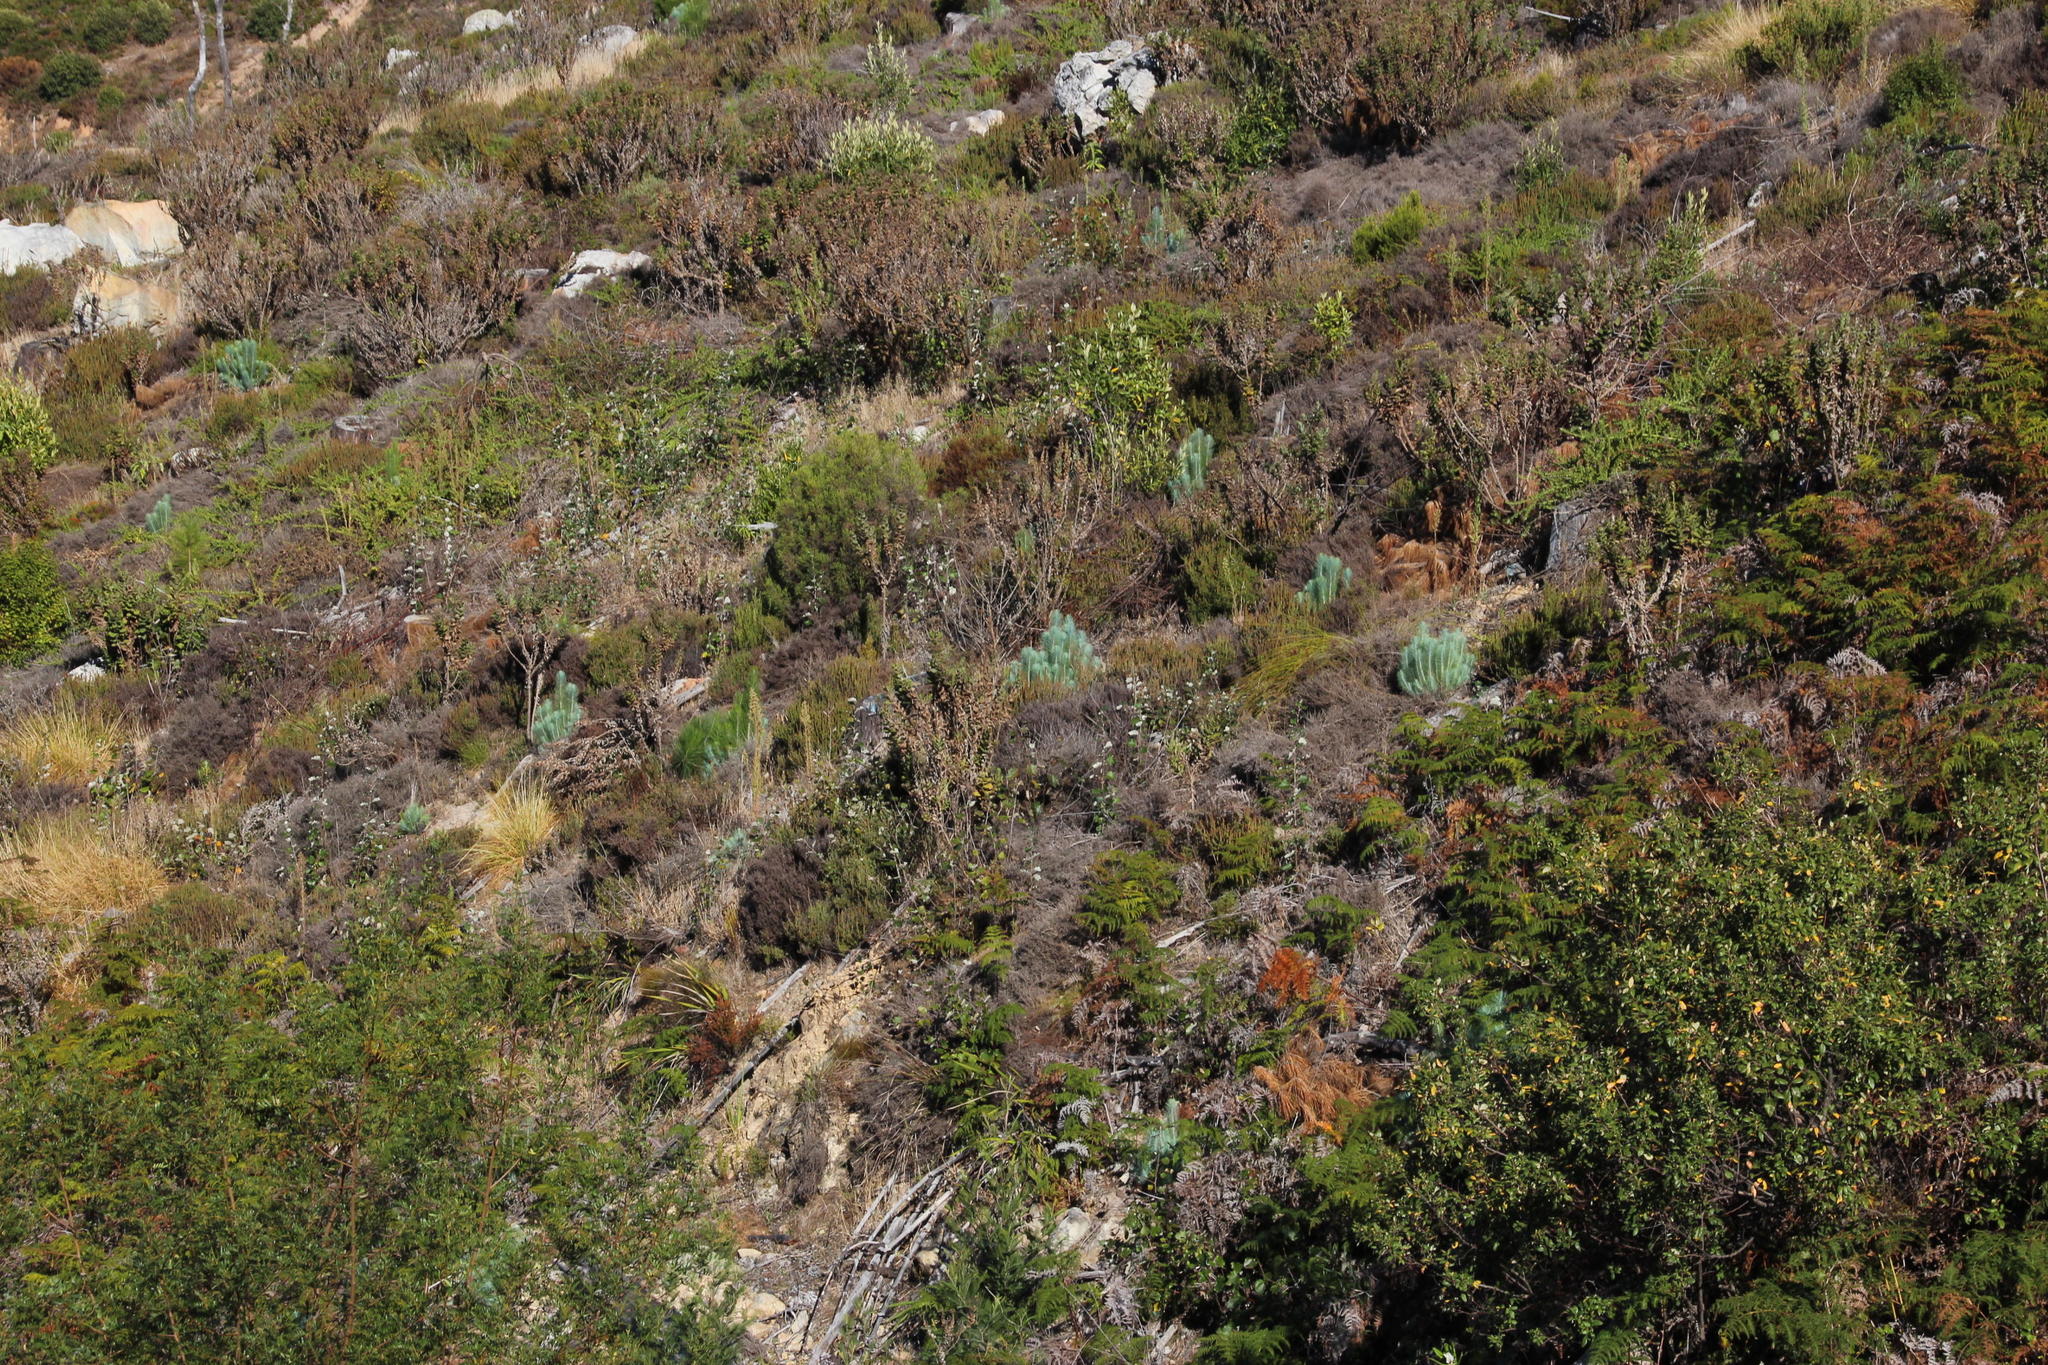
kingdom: Plantae
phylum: Tracheophyta
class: Pinopsida
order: Pinales
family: Pinaceae
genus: Pinus
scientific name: Pinus canariensis
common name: Canary islands pine
